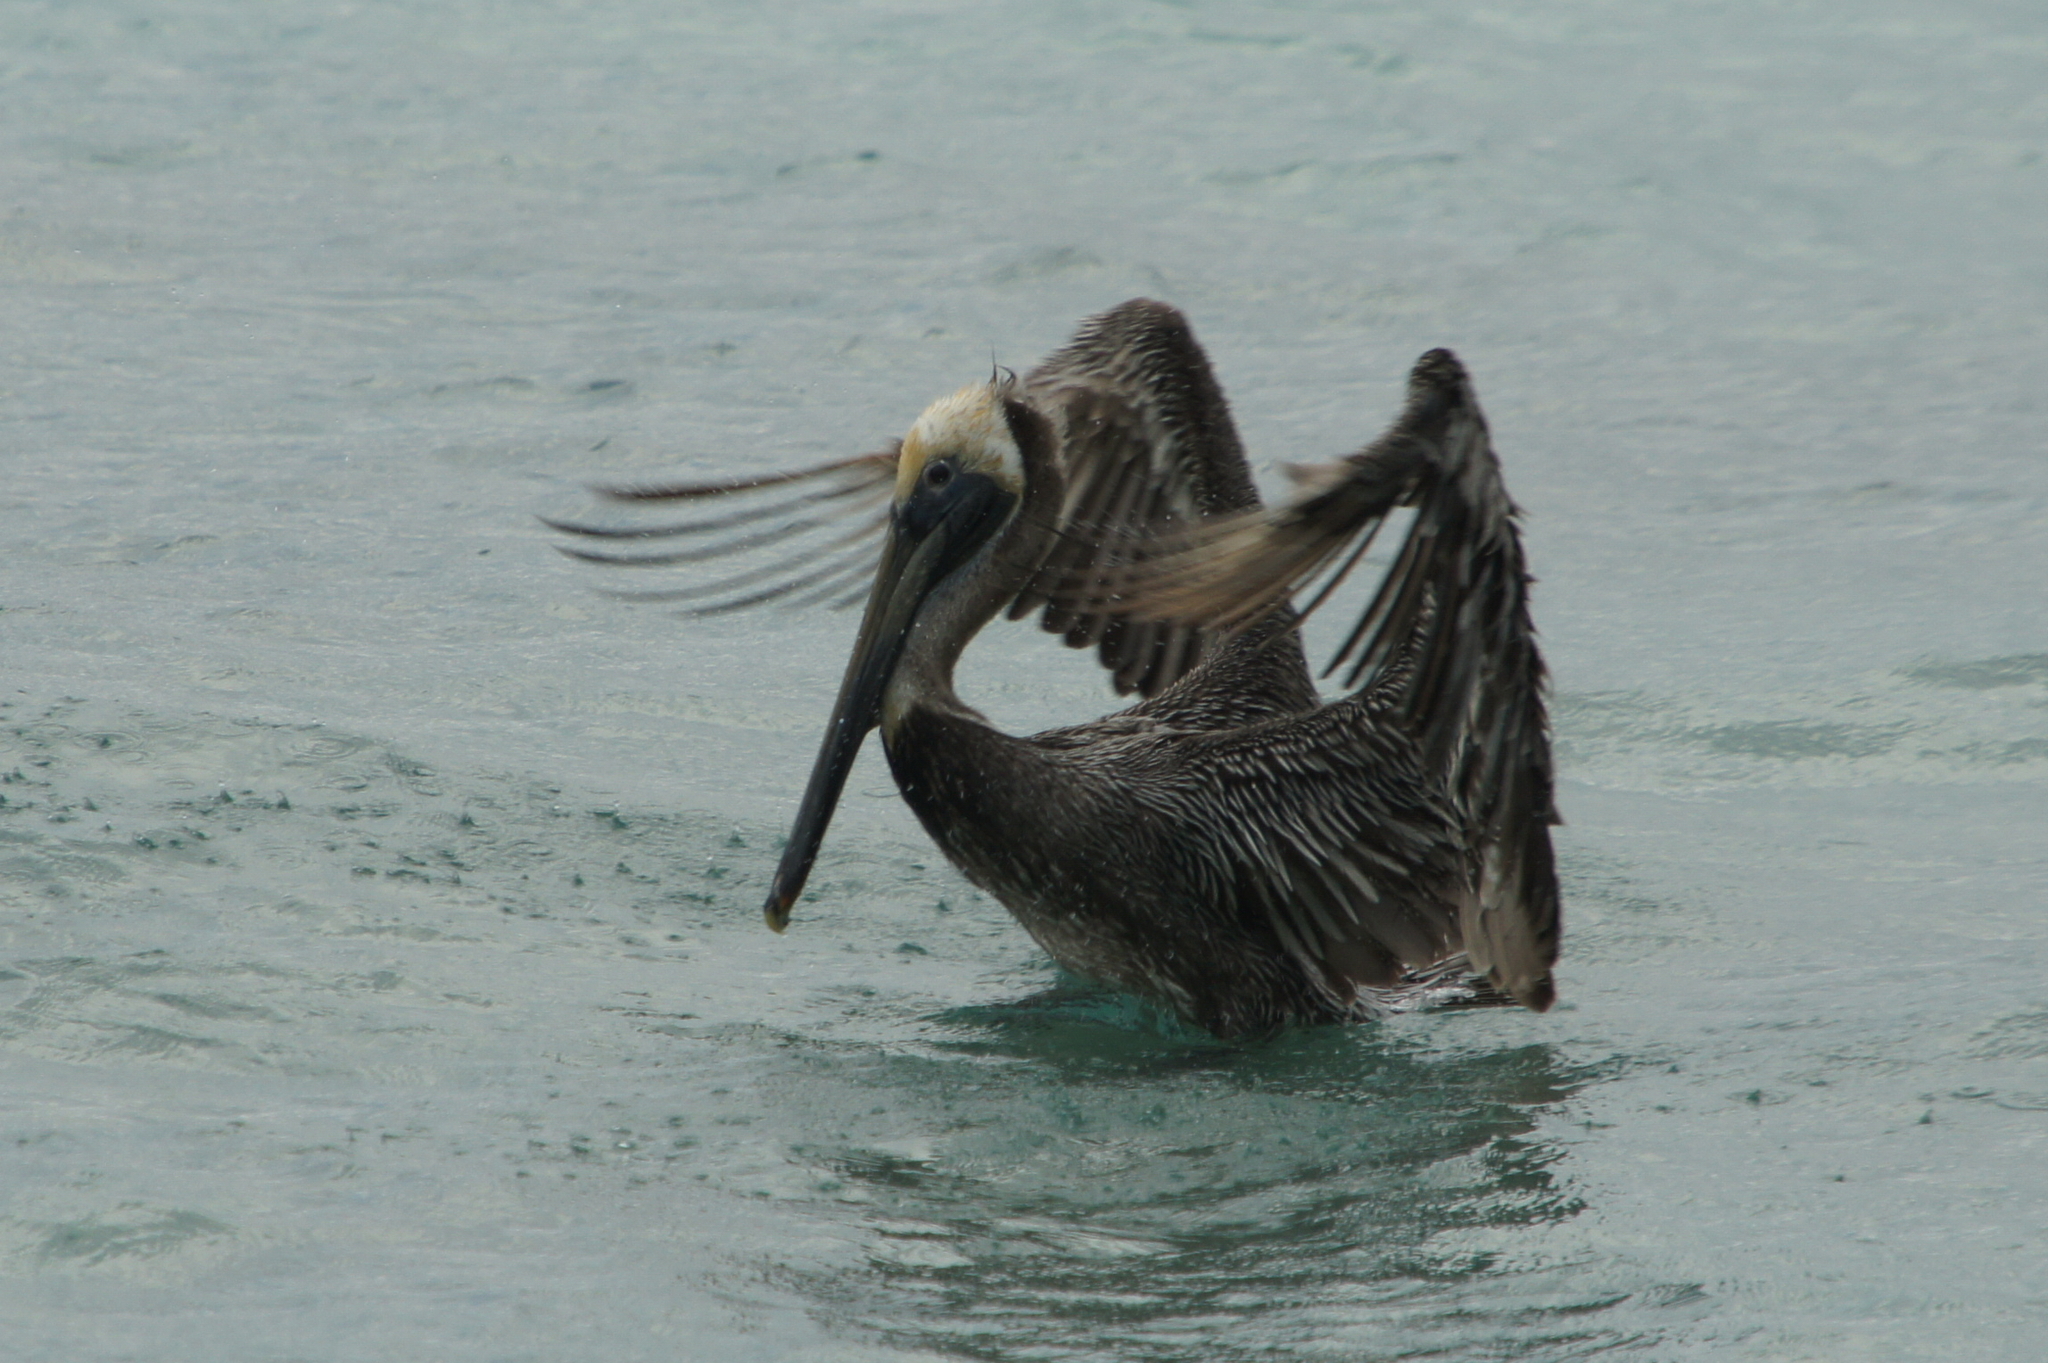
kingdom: Animalia
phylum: Chordata
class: Aves
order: Pelecaniformes
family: Pelecanidae
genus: Pelecanus
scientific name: Pelecanus occidentalis
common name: Brown pelican
